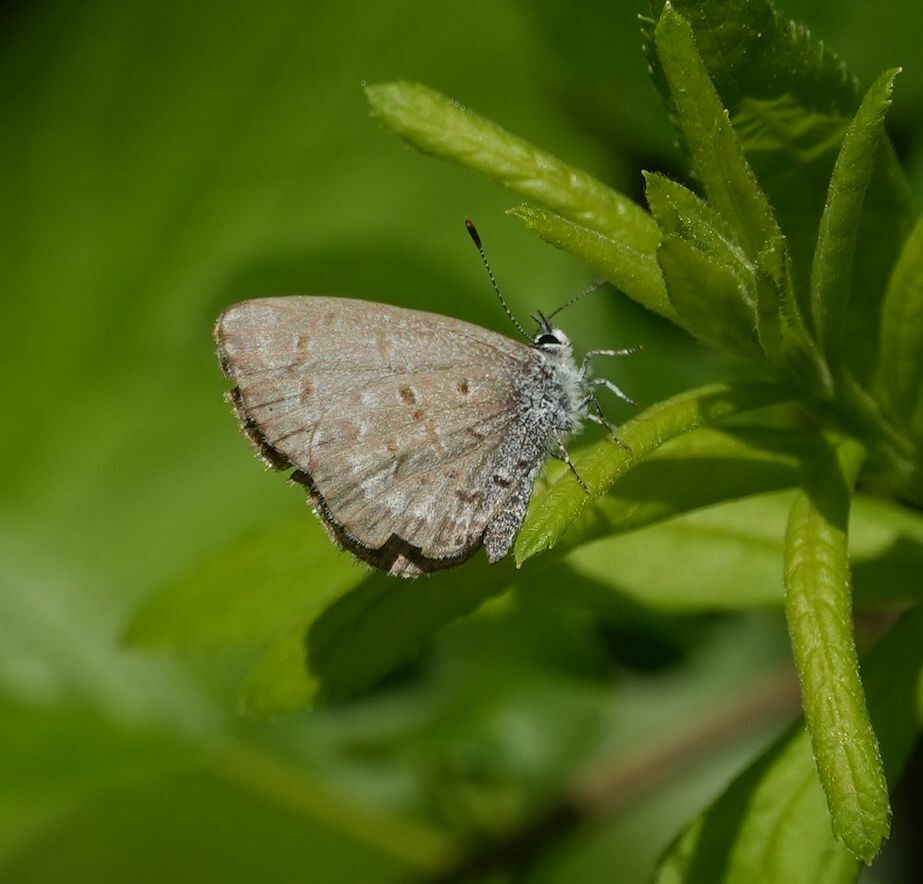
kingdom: Animalia
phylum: Arthropoda
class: Insecta
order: Lepidoptera
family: Lycaenidae
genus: Celastrina
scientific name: Celastrina lucia
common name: Lucia azure
